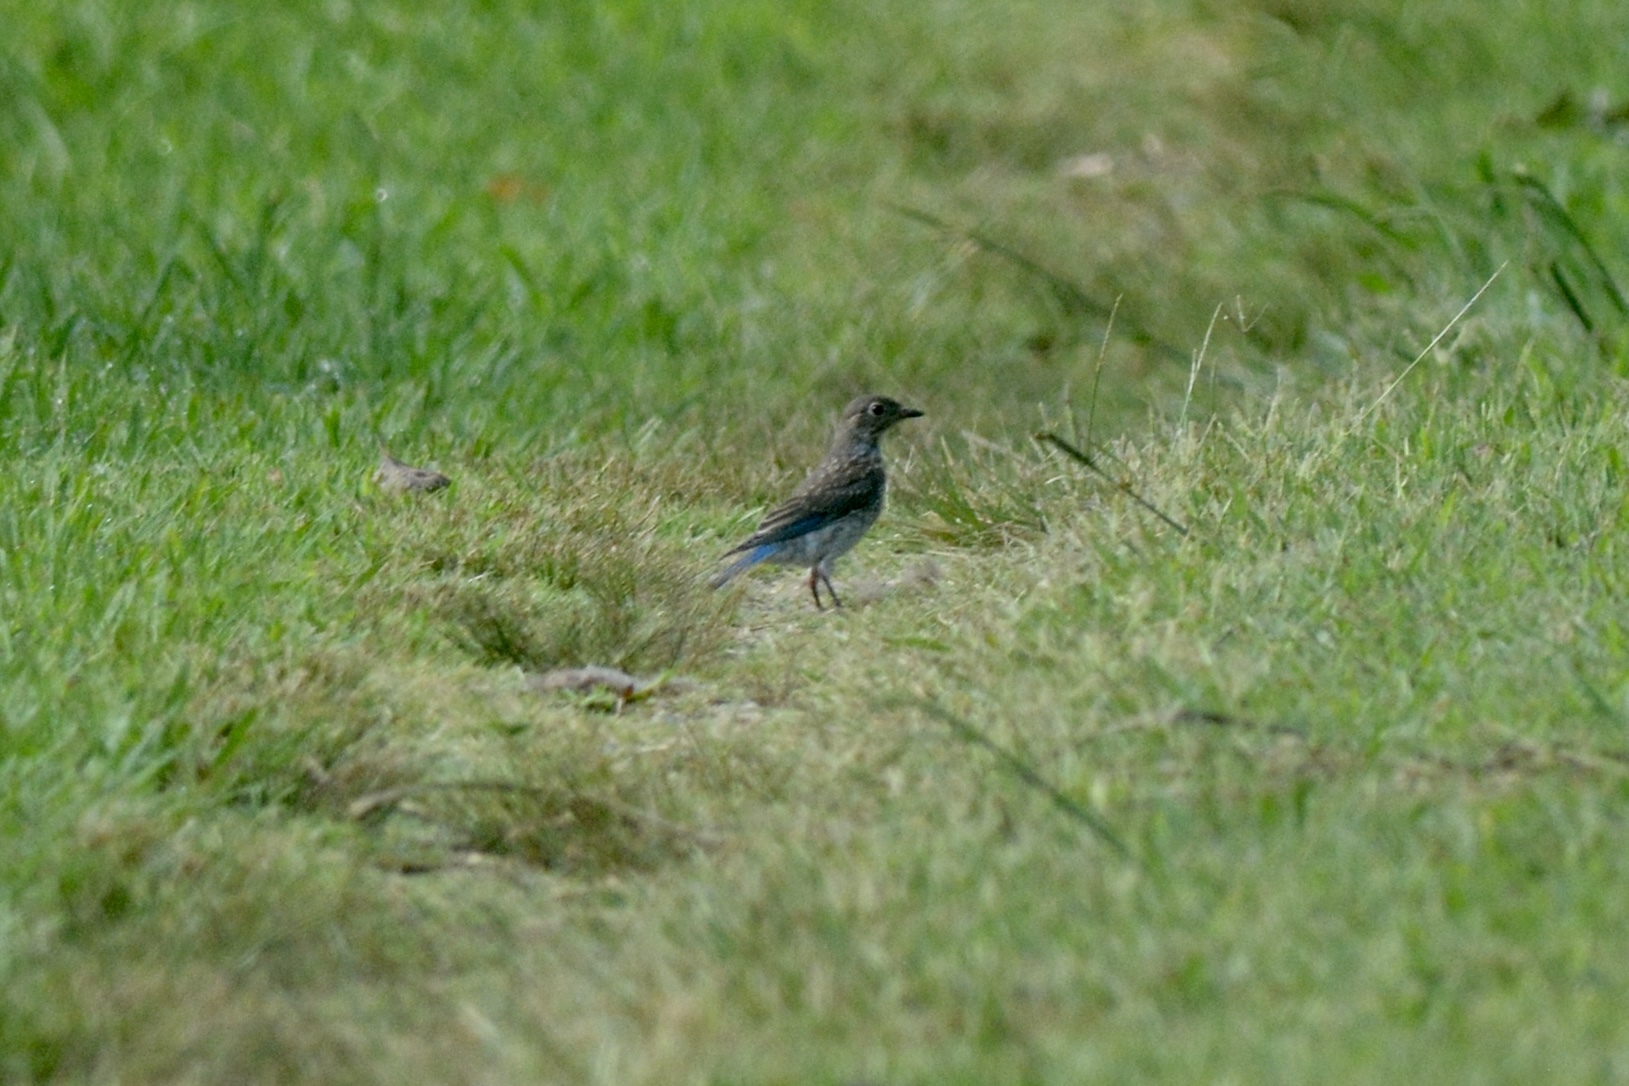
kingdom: Animalia
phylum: Chordata
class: Aves
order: Passeriformes
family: Turdidae
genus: Sialia
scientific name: Sialia sialis
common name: Eastern bluebird
